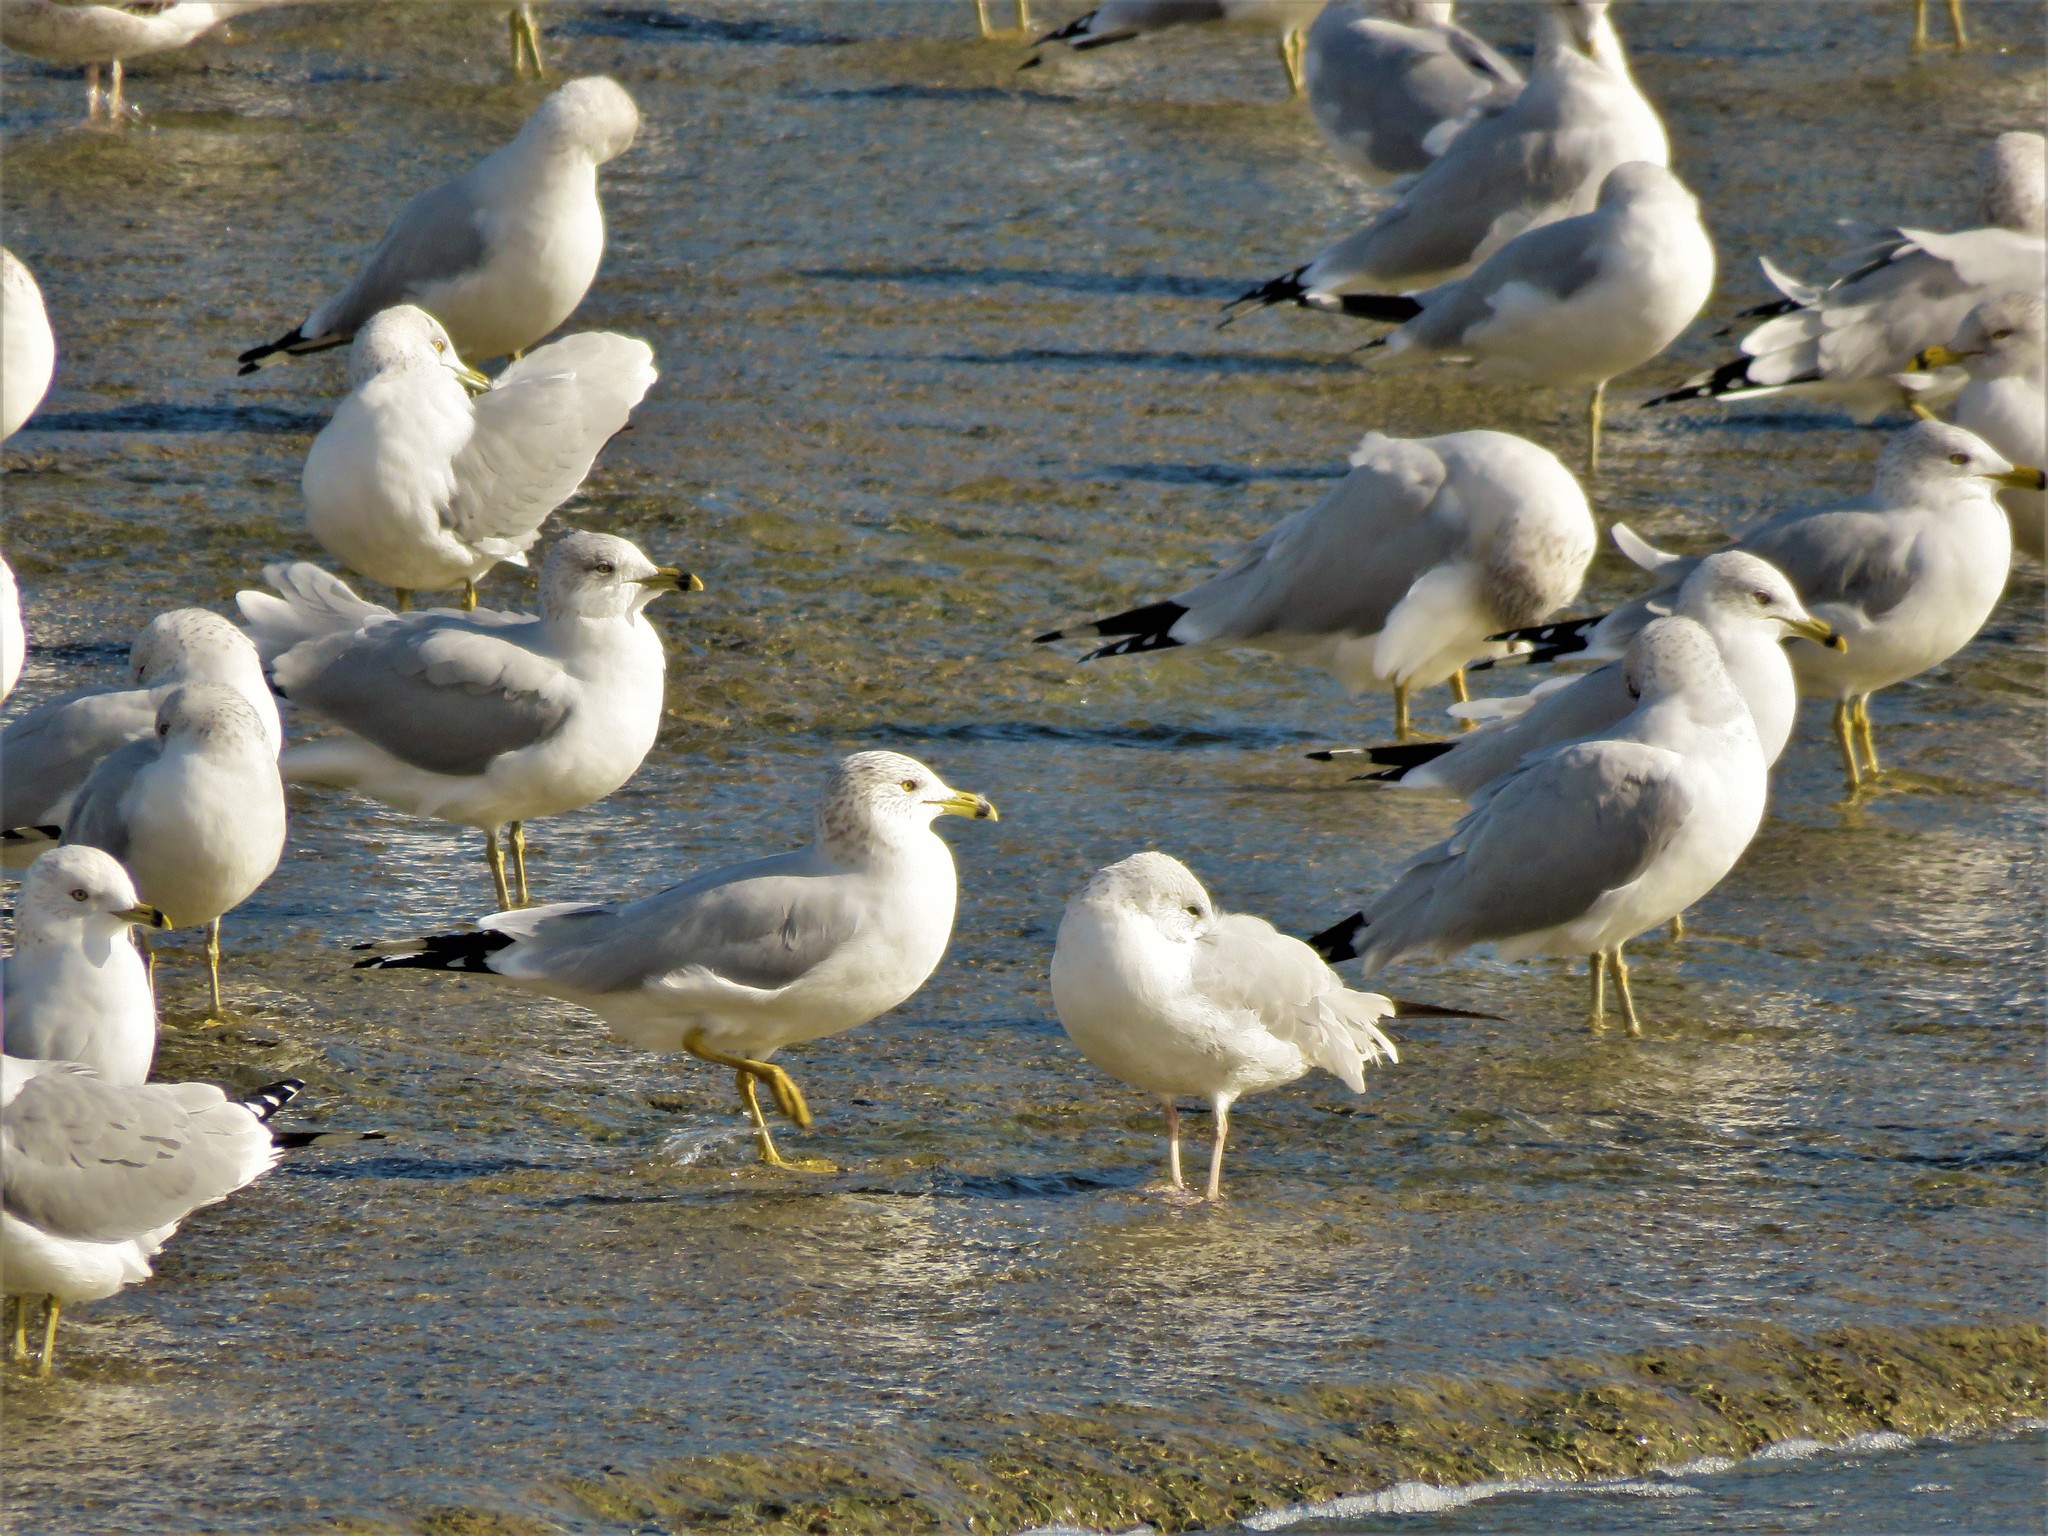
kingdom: Animalia
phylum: Chordata
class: Aves
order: Charadriiformes
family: Laridae
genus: Larus
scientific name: Larus delawarensis
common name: Ring-billed gull
